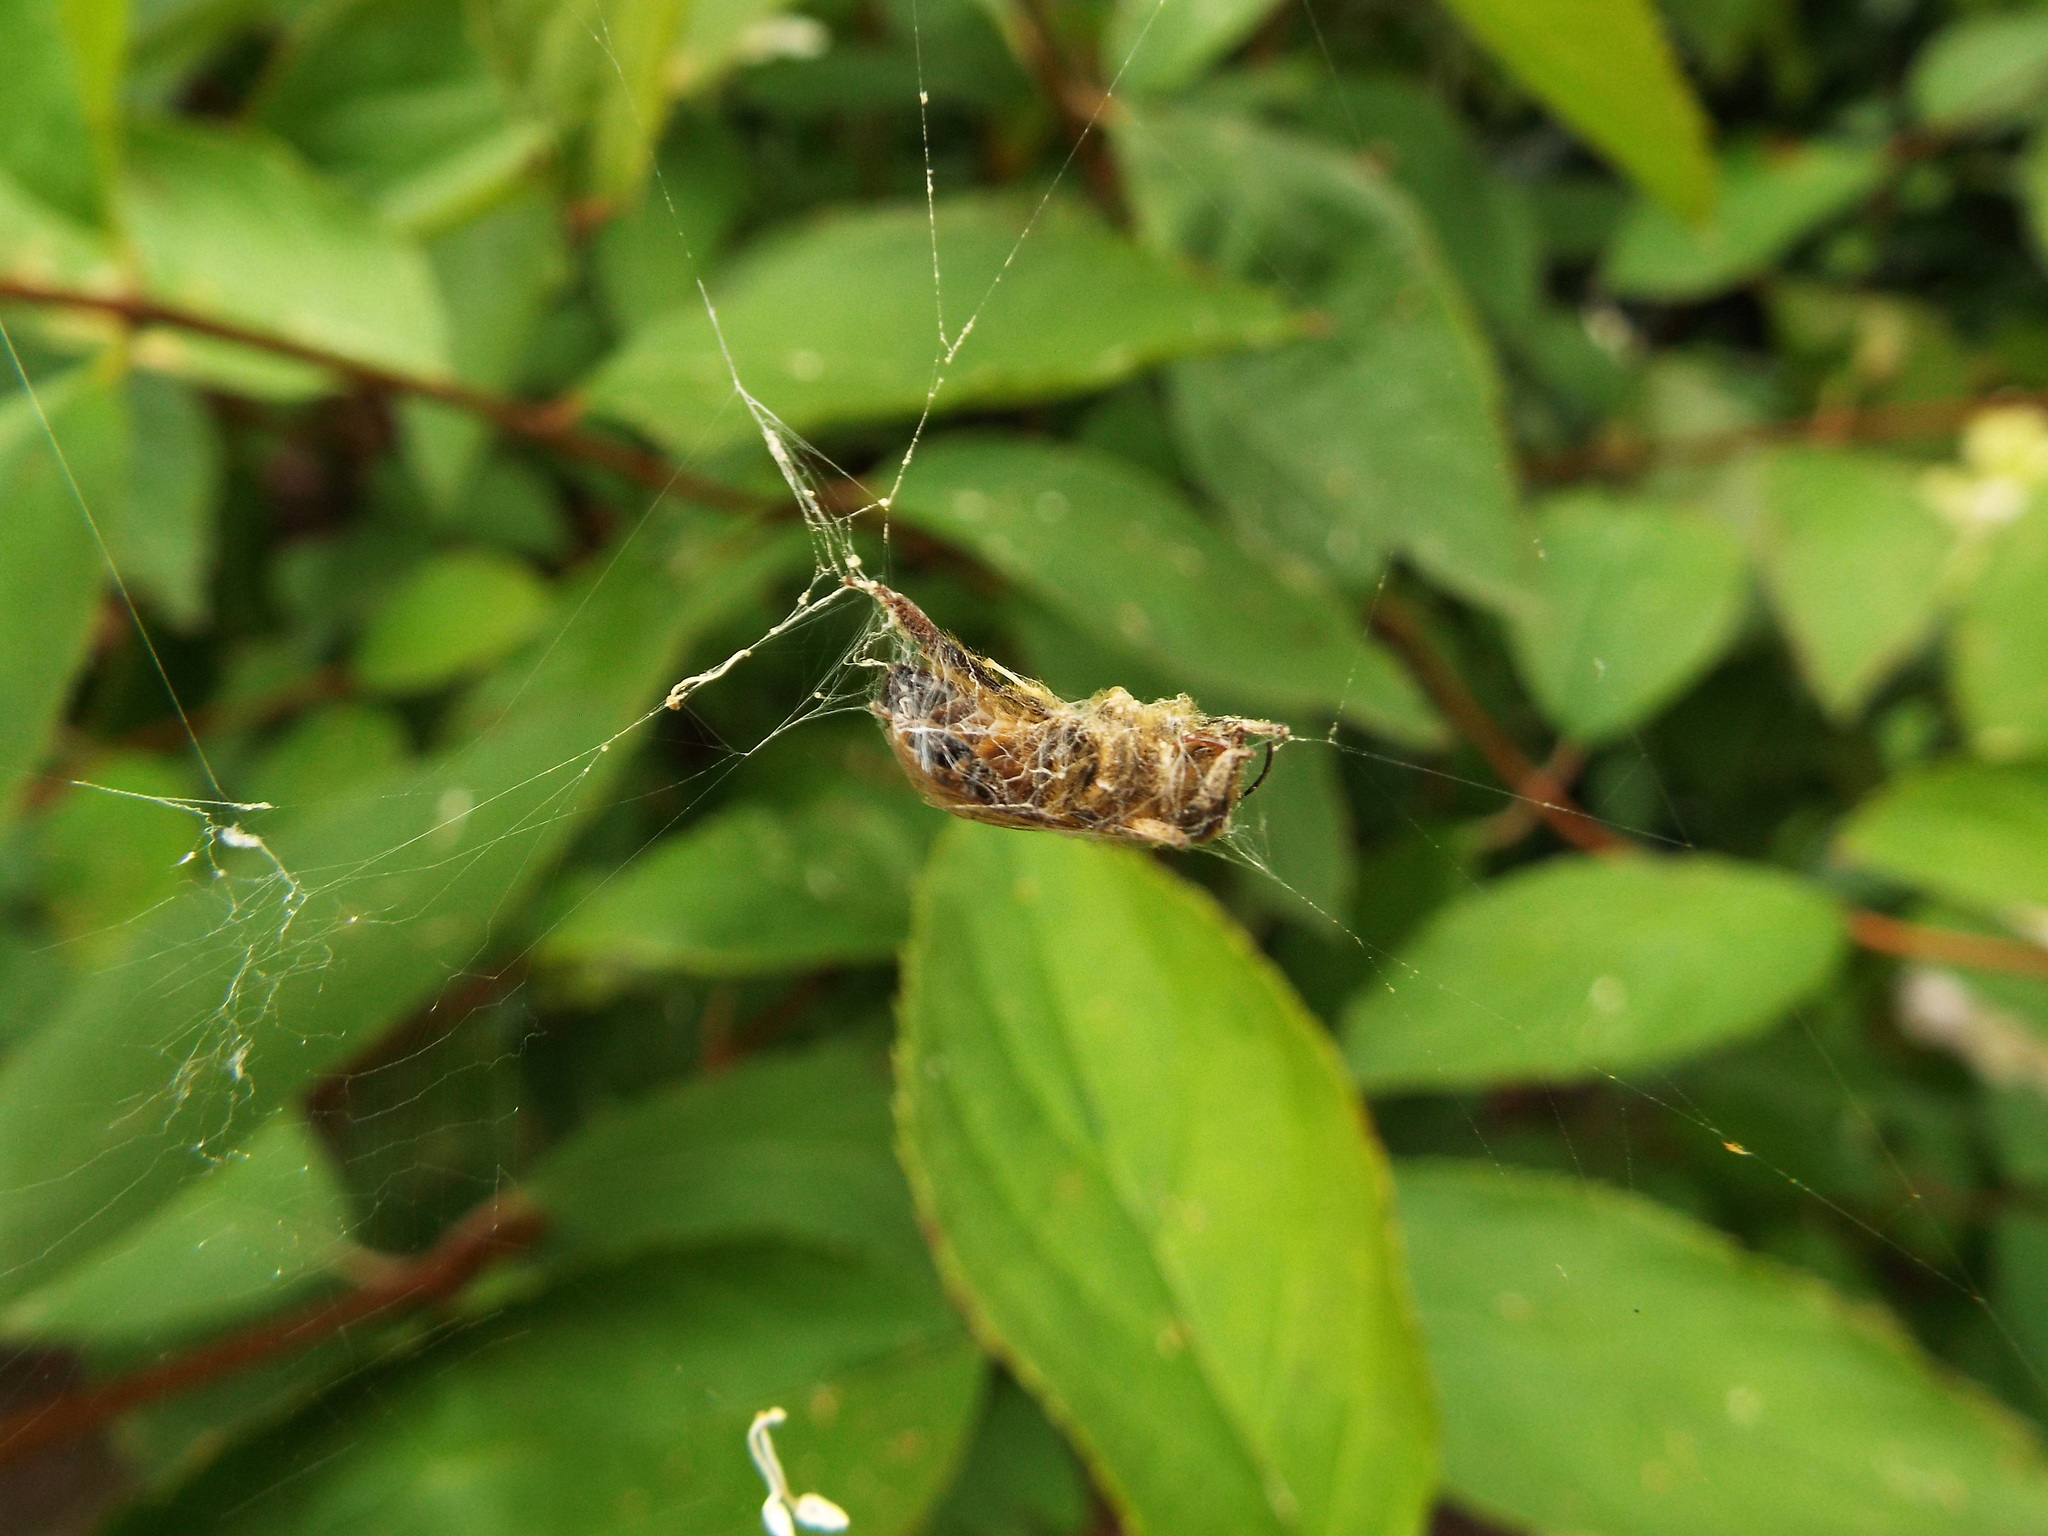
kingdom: Animalia
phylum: Arthropoda
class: Insecta
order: Hymenoptera
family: Apidae
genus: Apis
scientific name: Apis mellifera
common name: Honey bee
